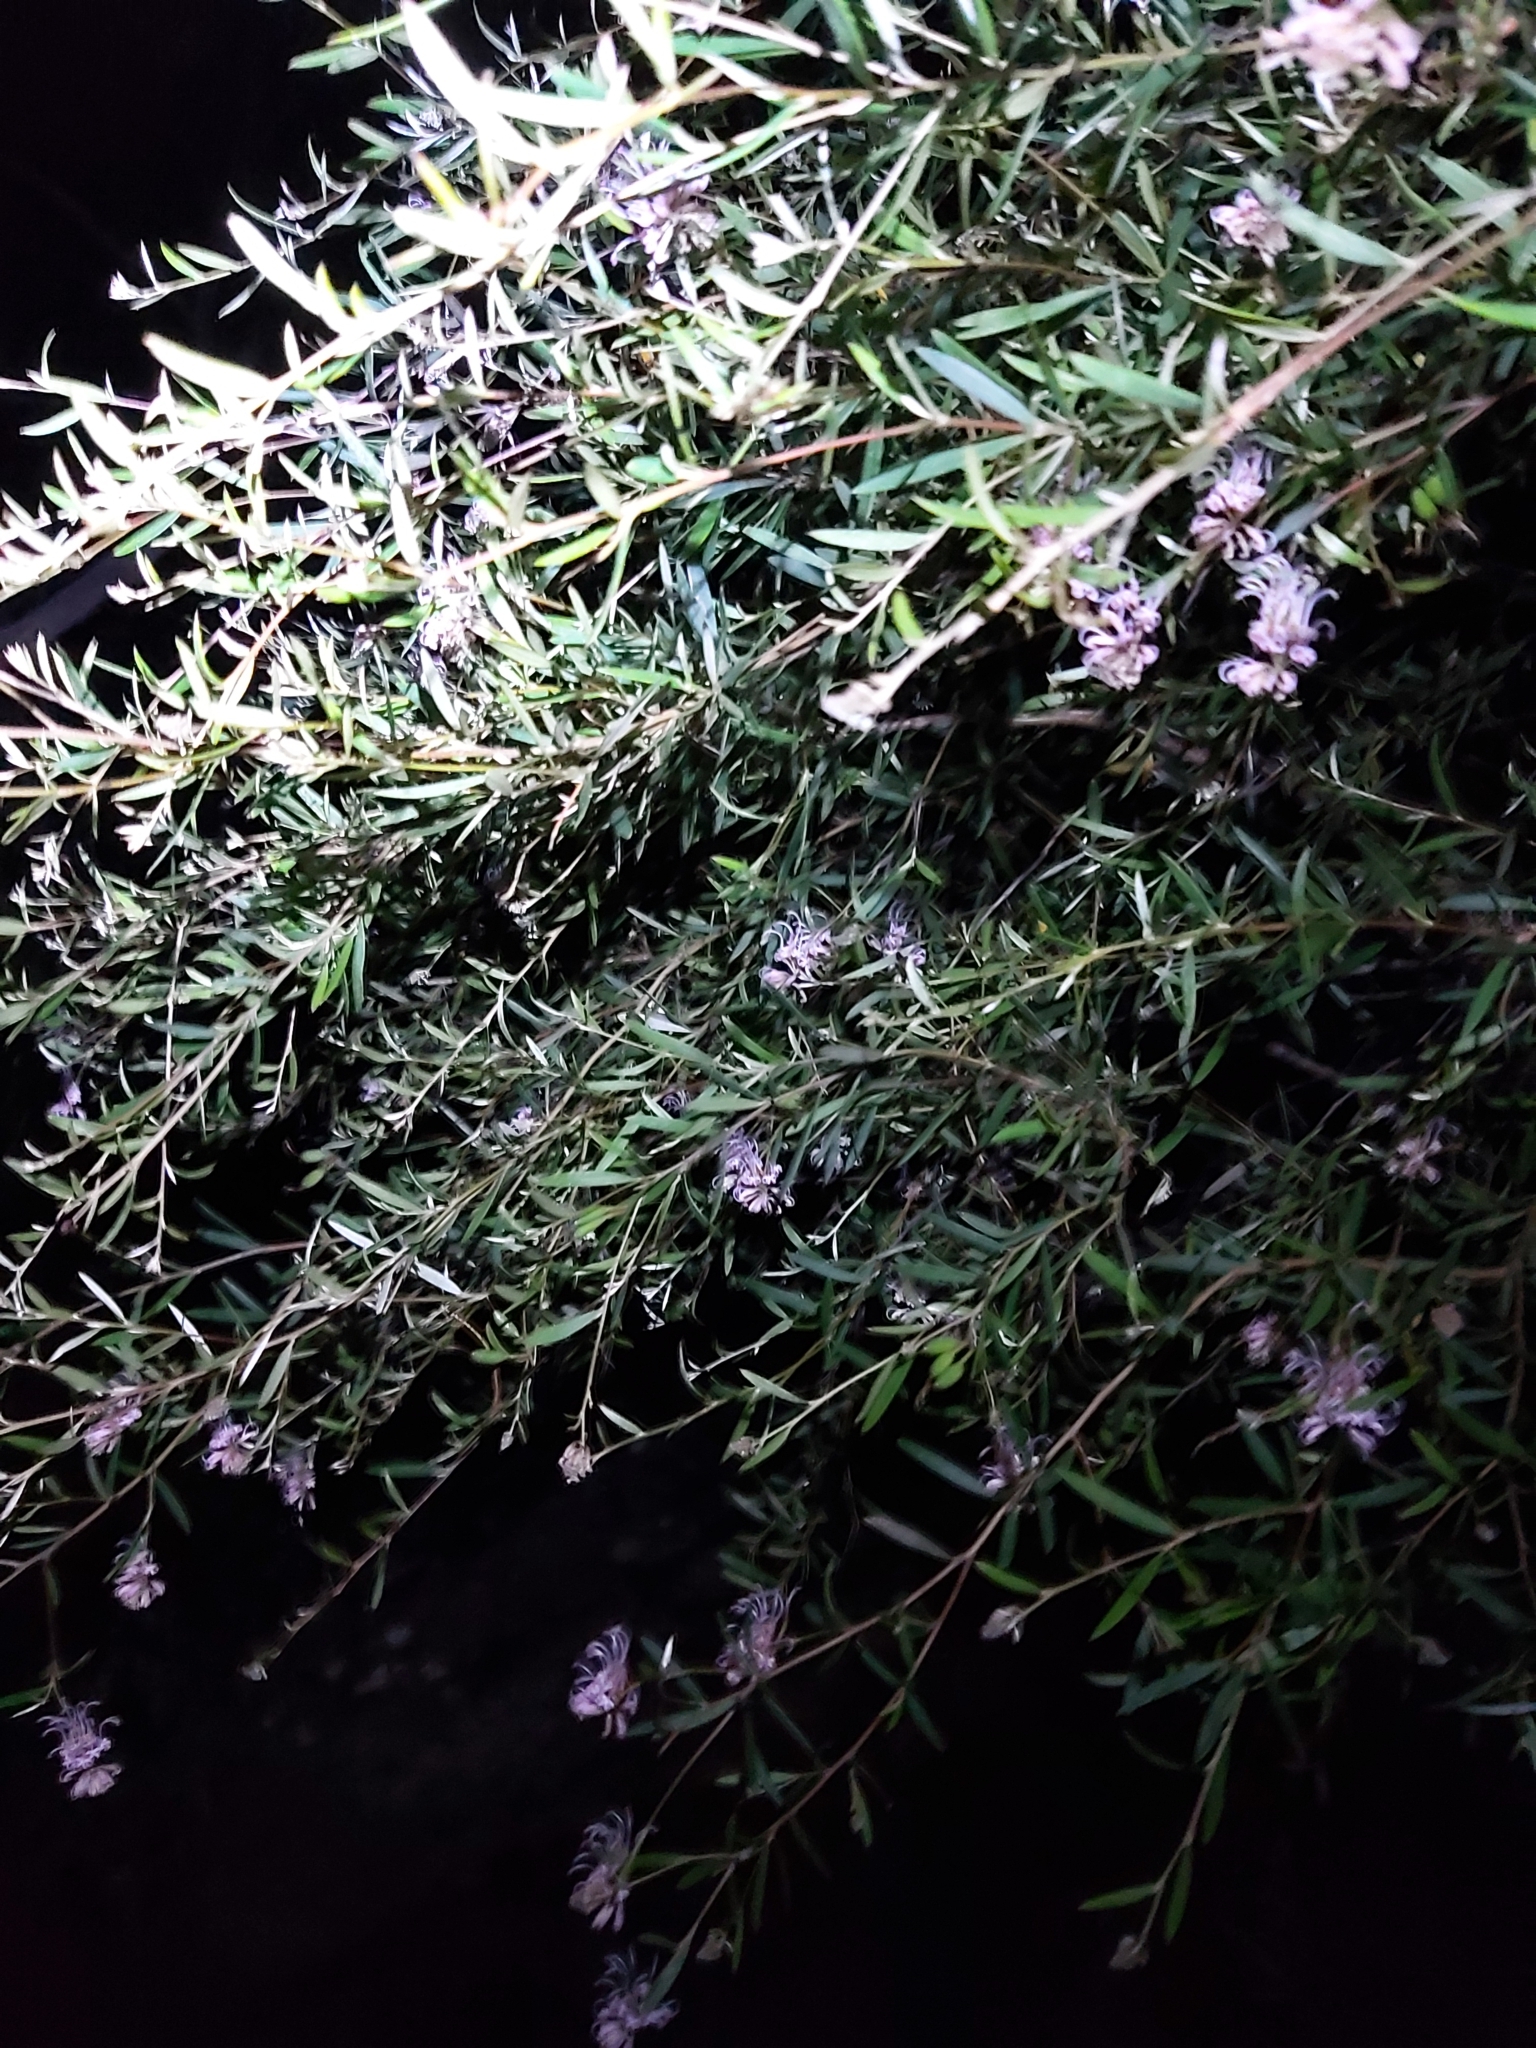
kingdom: Plantae
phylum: Tracheophyta
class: Magnoliopsida
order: Proteales
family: Proteaceae
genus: Grevillea
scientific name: Grevillea sericea
